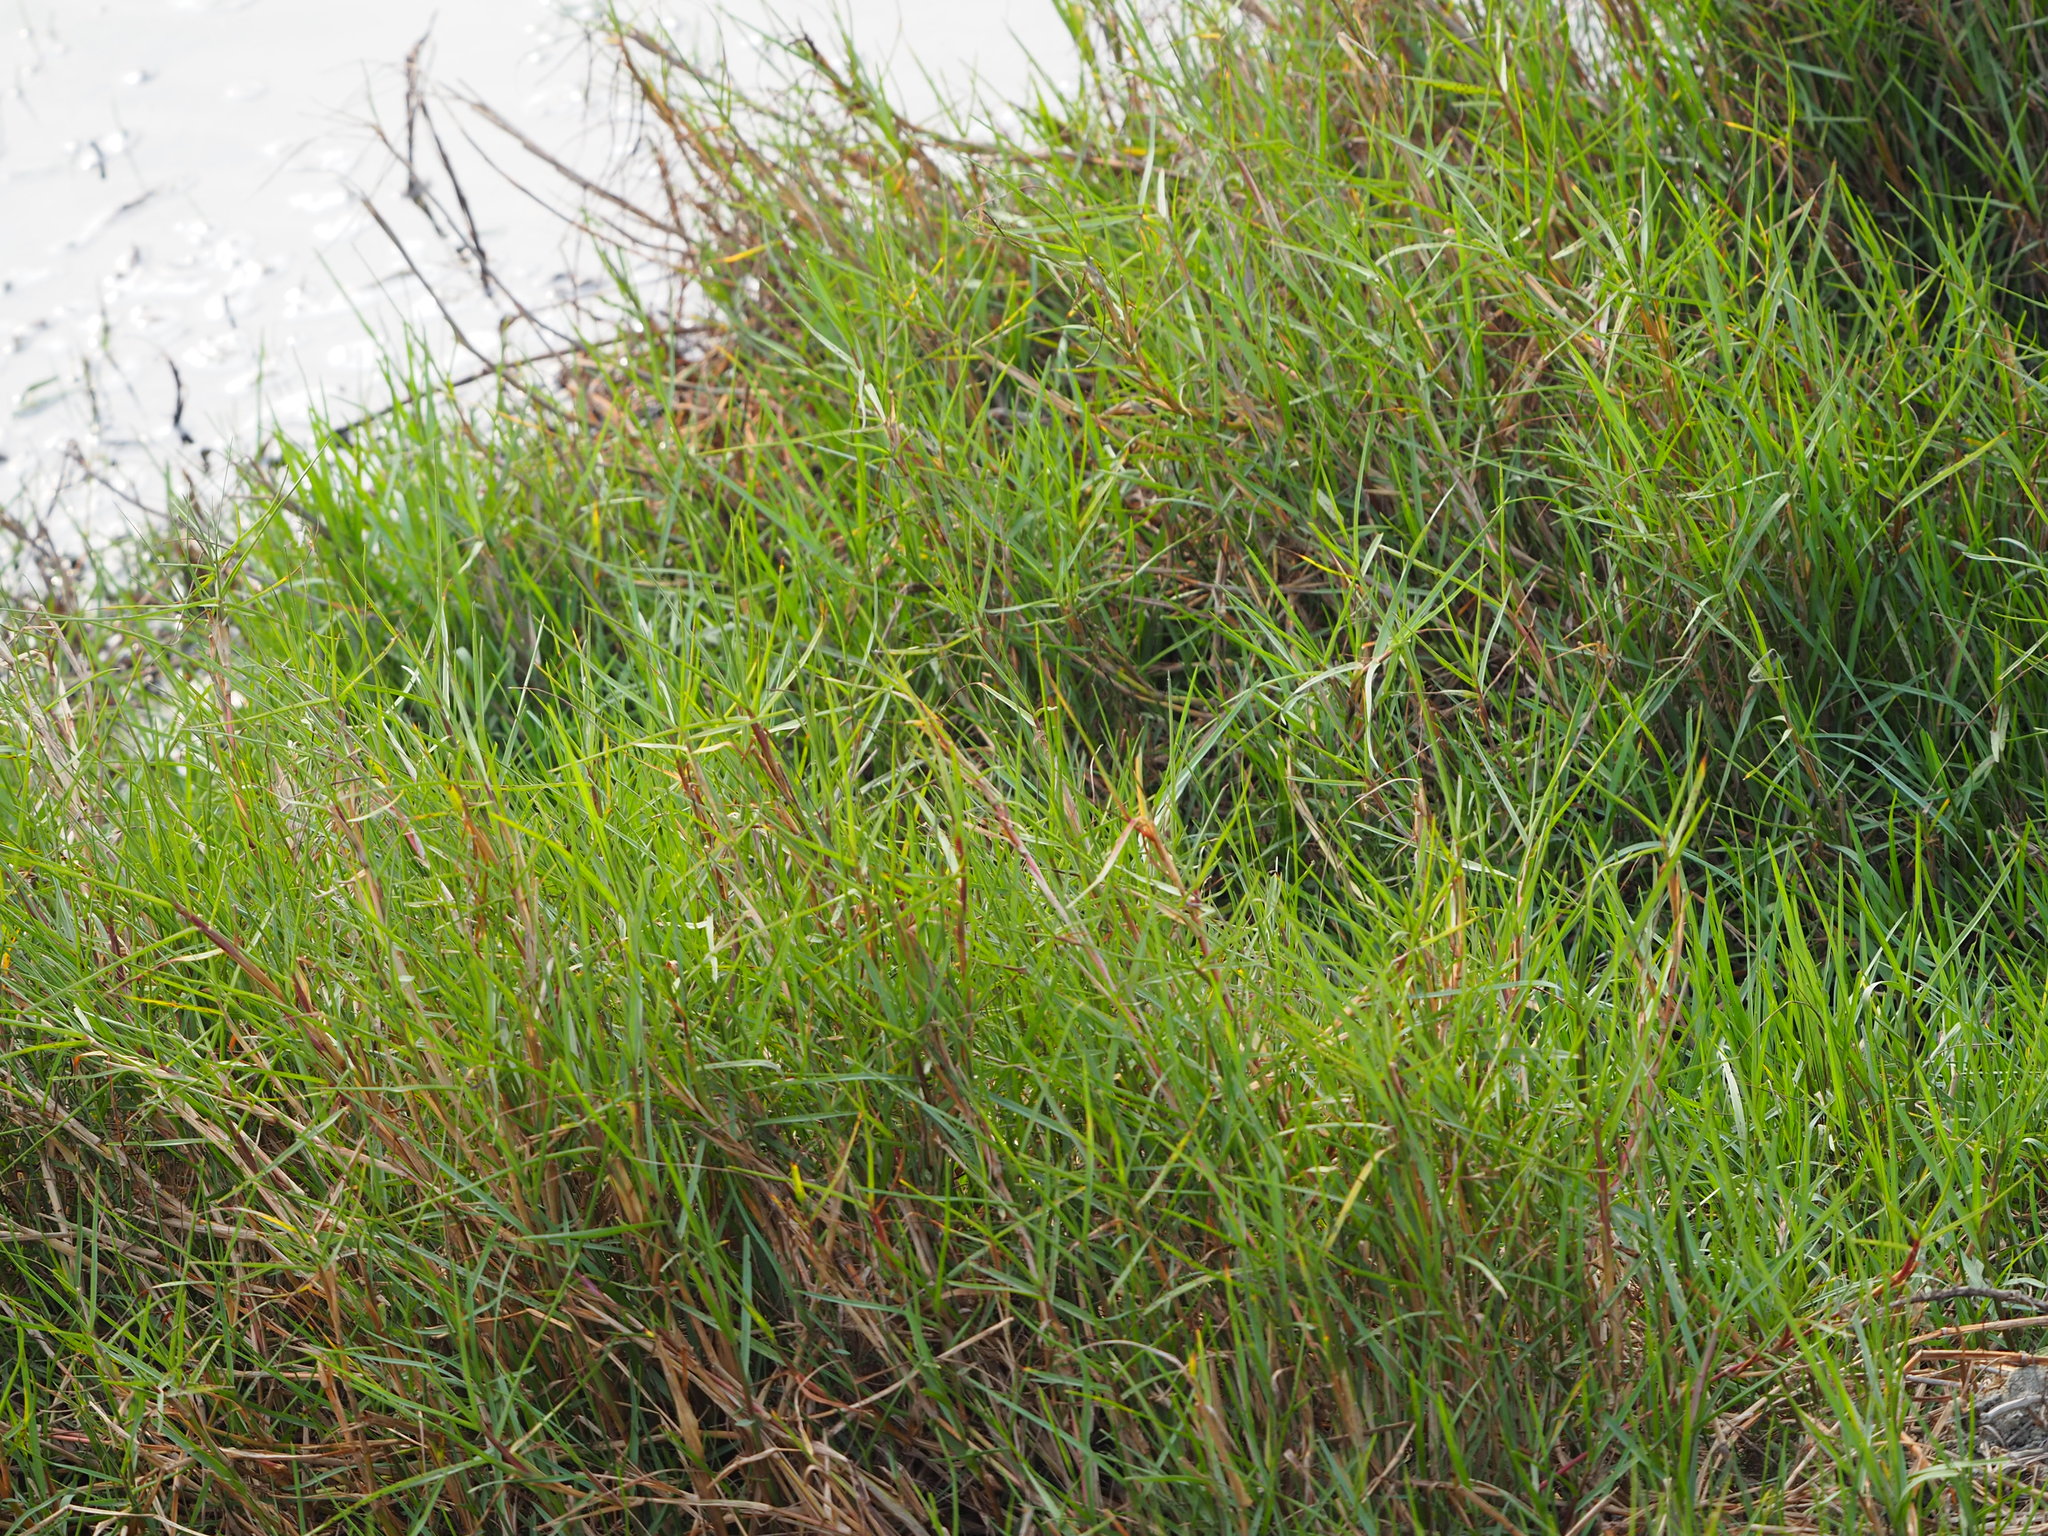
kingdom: Plantae
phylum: Tracheophyta
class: Liliopsida
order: Poales
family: Poaceae
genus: Paspalum
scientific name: Paspalum vaginatum
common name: Seashore paspalum
